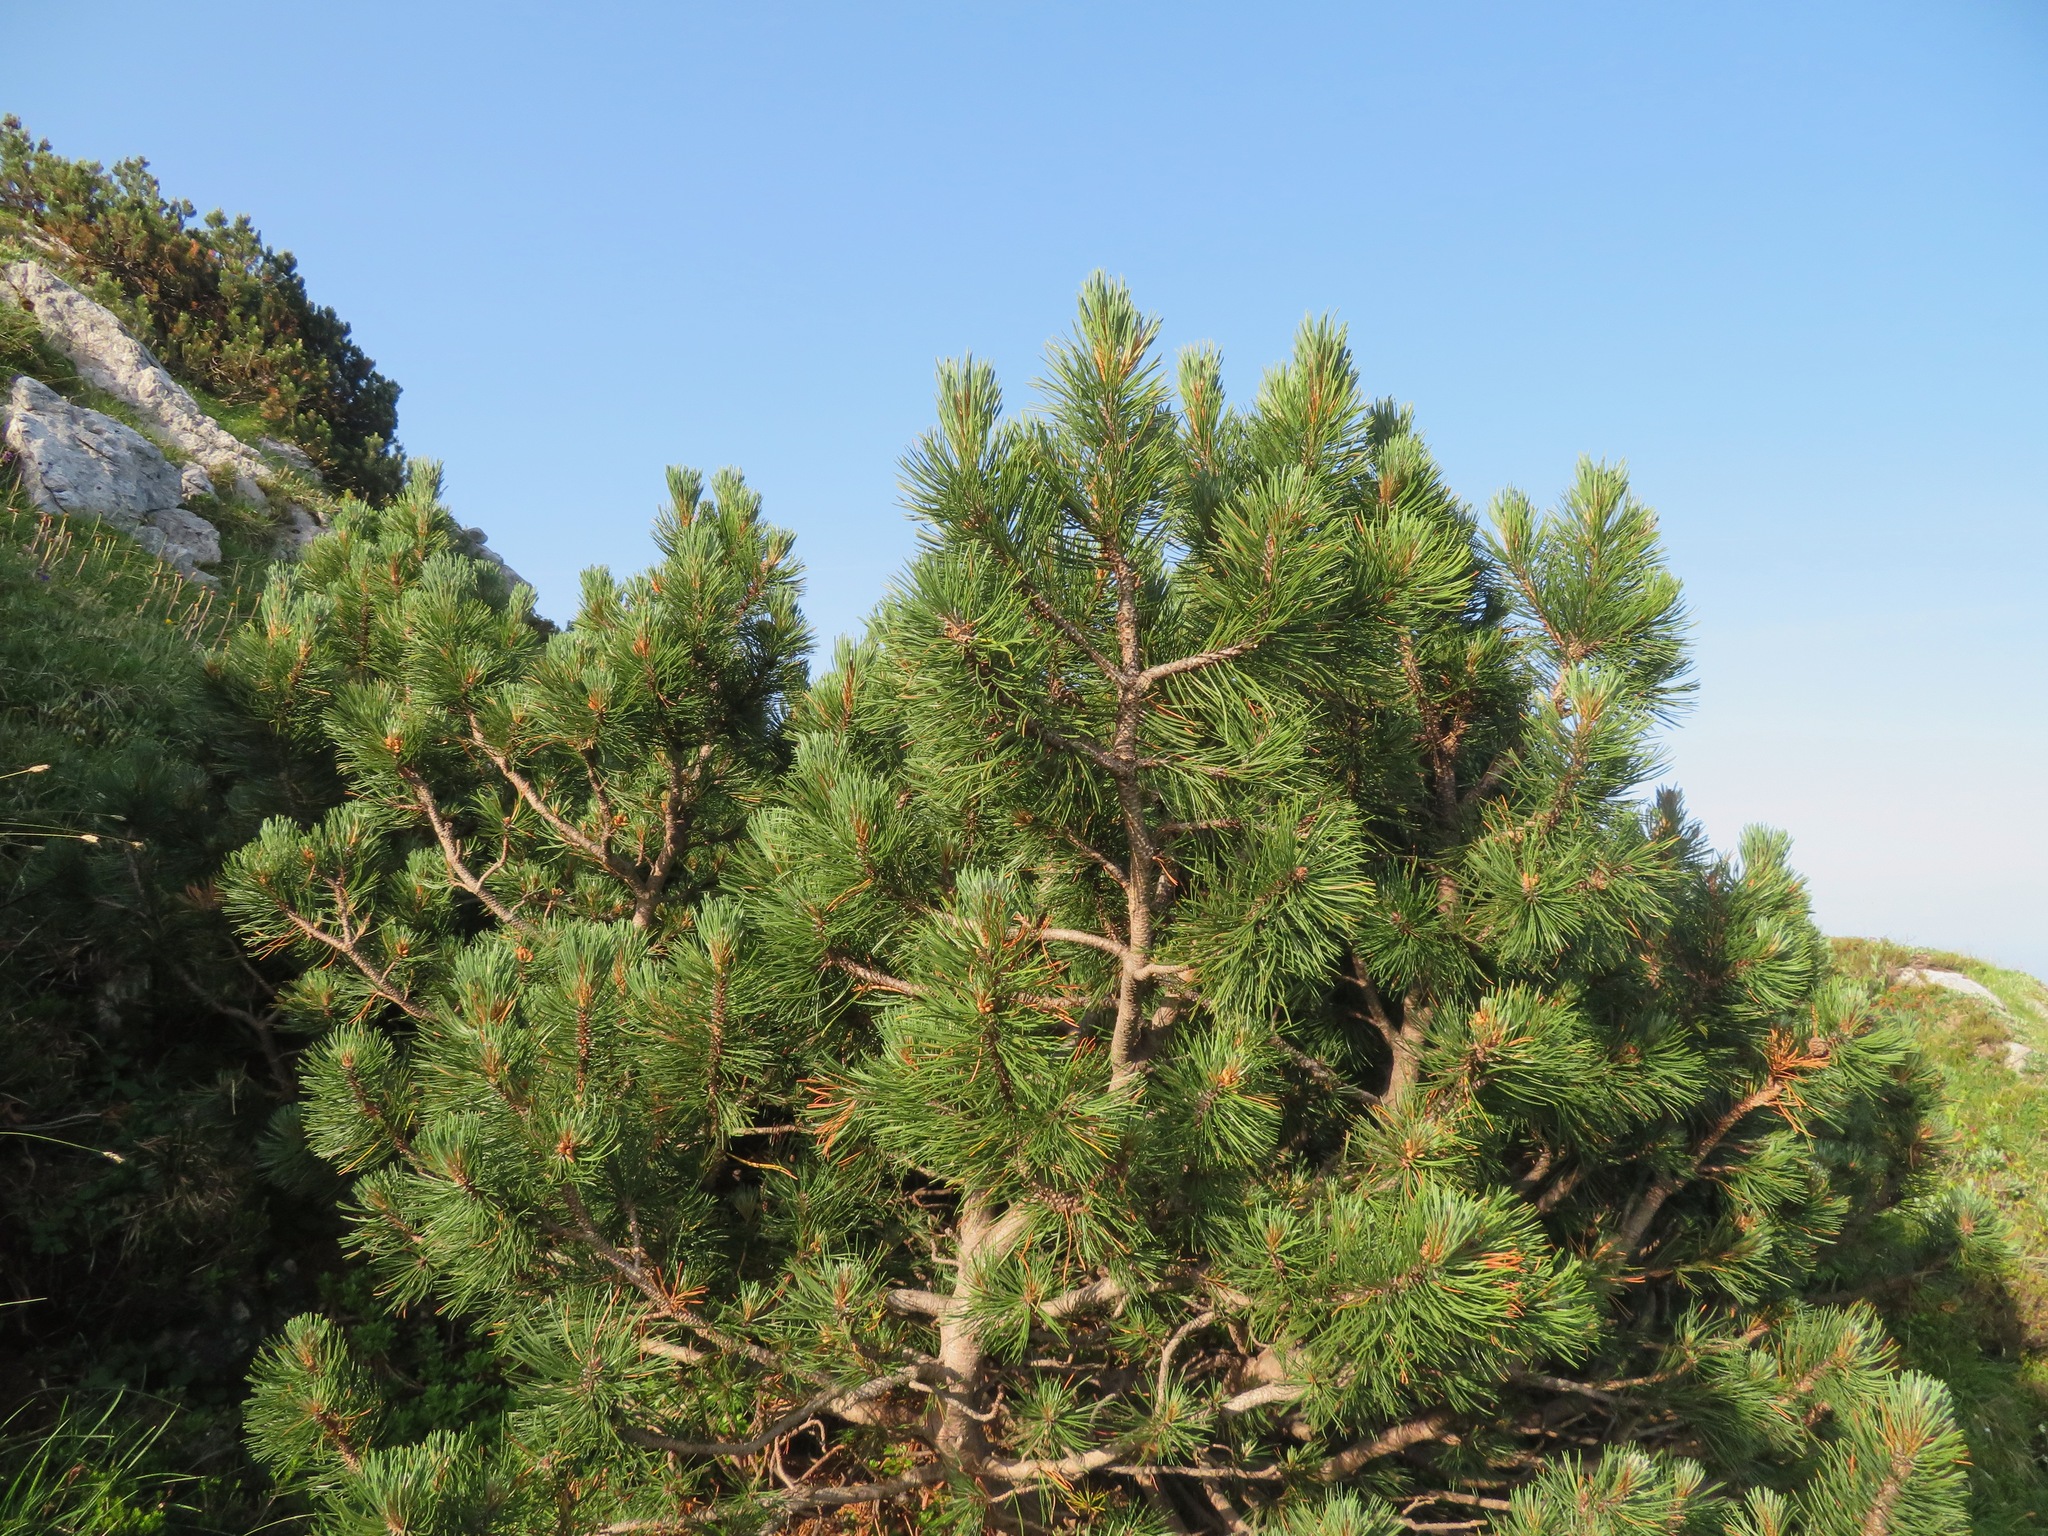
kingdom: Plantae
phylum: Tracheophyta
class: Pinopsida
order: Pinales
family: Pinaceae
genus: Pinus
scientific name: Pinus mugo
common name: Mugo pine
